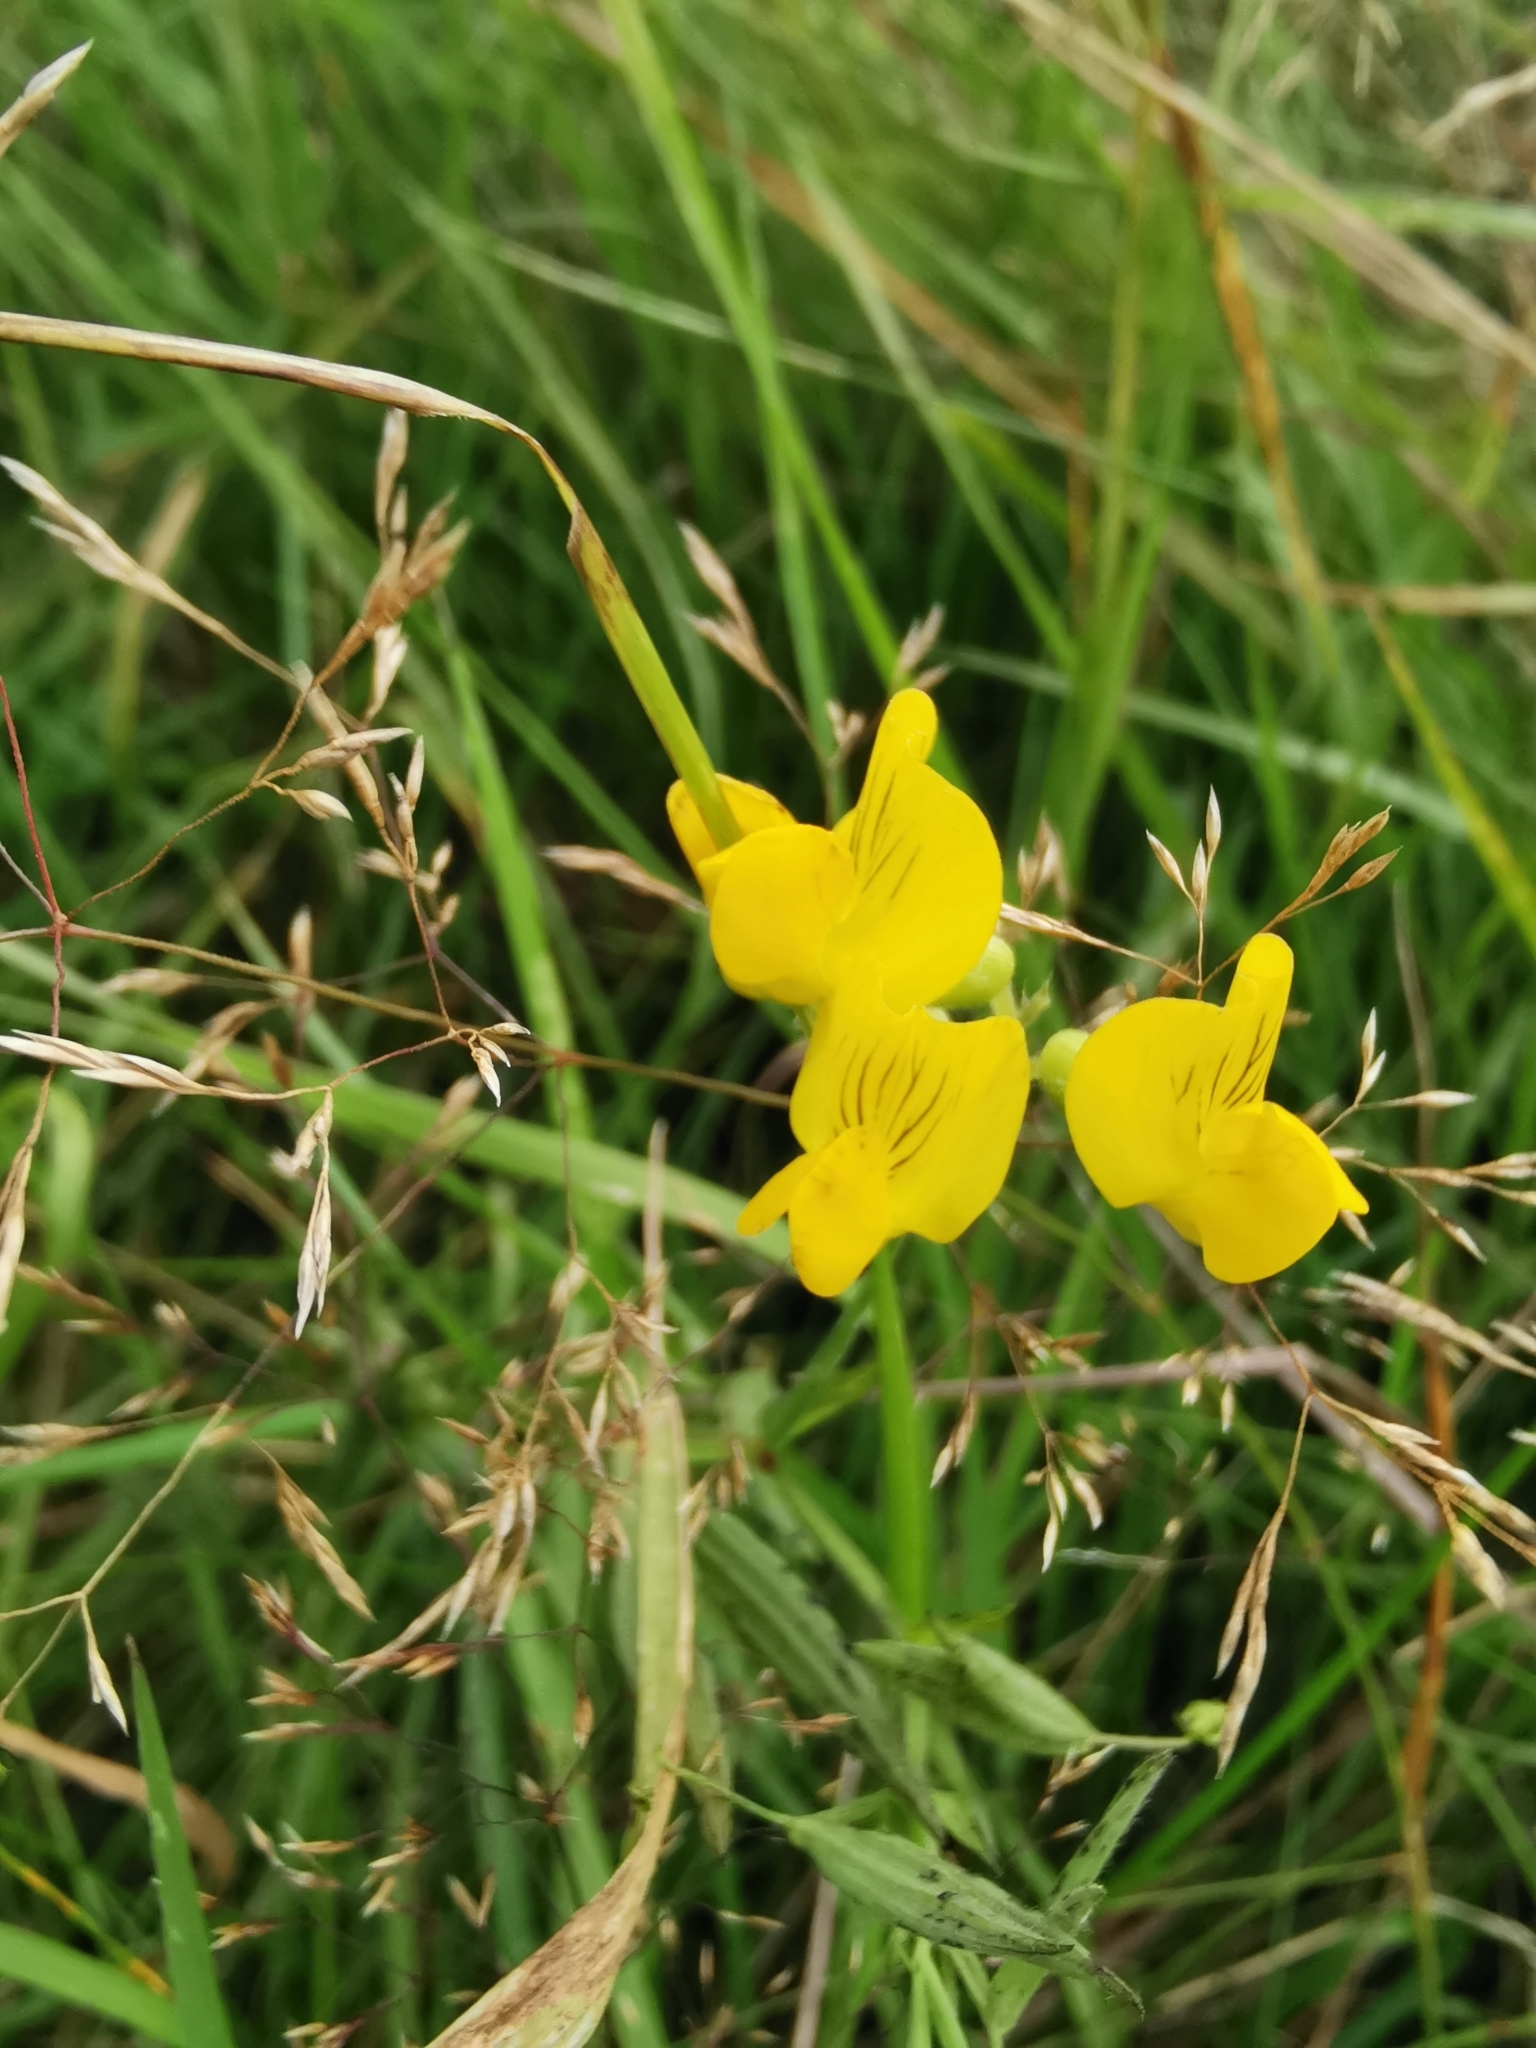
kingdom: Plantae
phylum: Tracheophyta
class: Magnoliopsida
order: Fabales
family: Fabaceae
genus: Lathyrus
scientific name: Lathyrus pratensis
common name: Meadow vetchling
